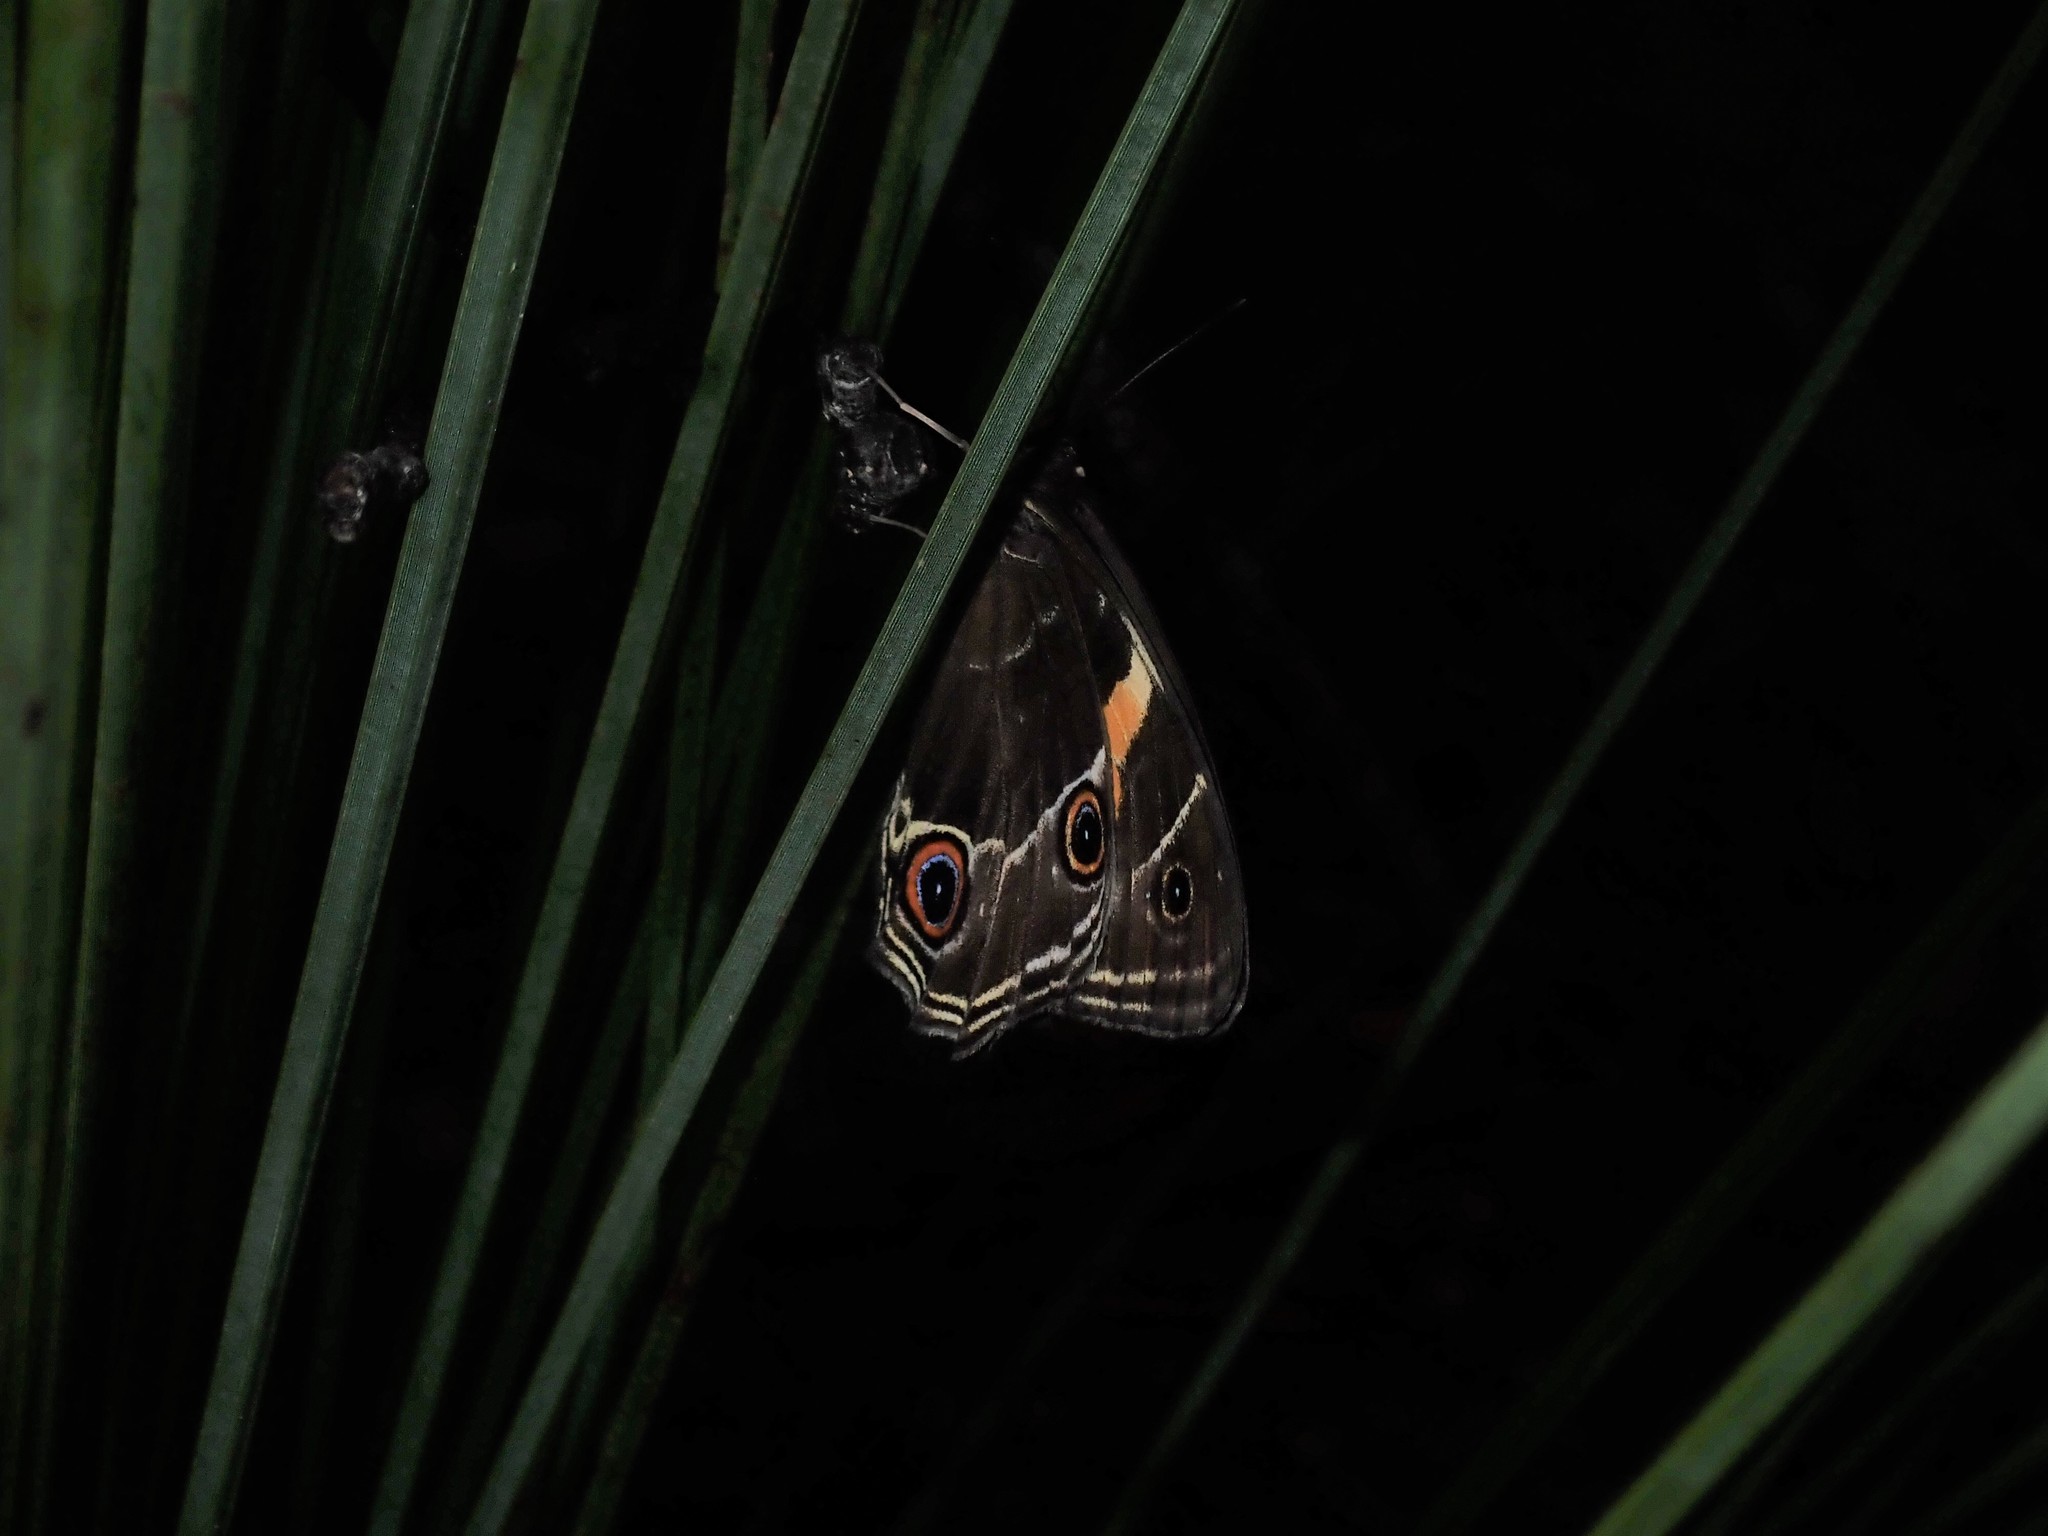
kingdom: Animalia
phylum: Arthropoda
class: Insecta
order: Lepidoptera
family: Nymphalidae
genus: Tisiphone
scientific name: Tisiphone abeona
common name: Swordgrass brown
